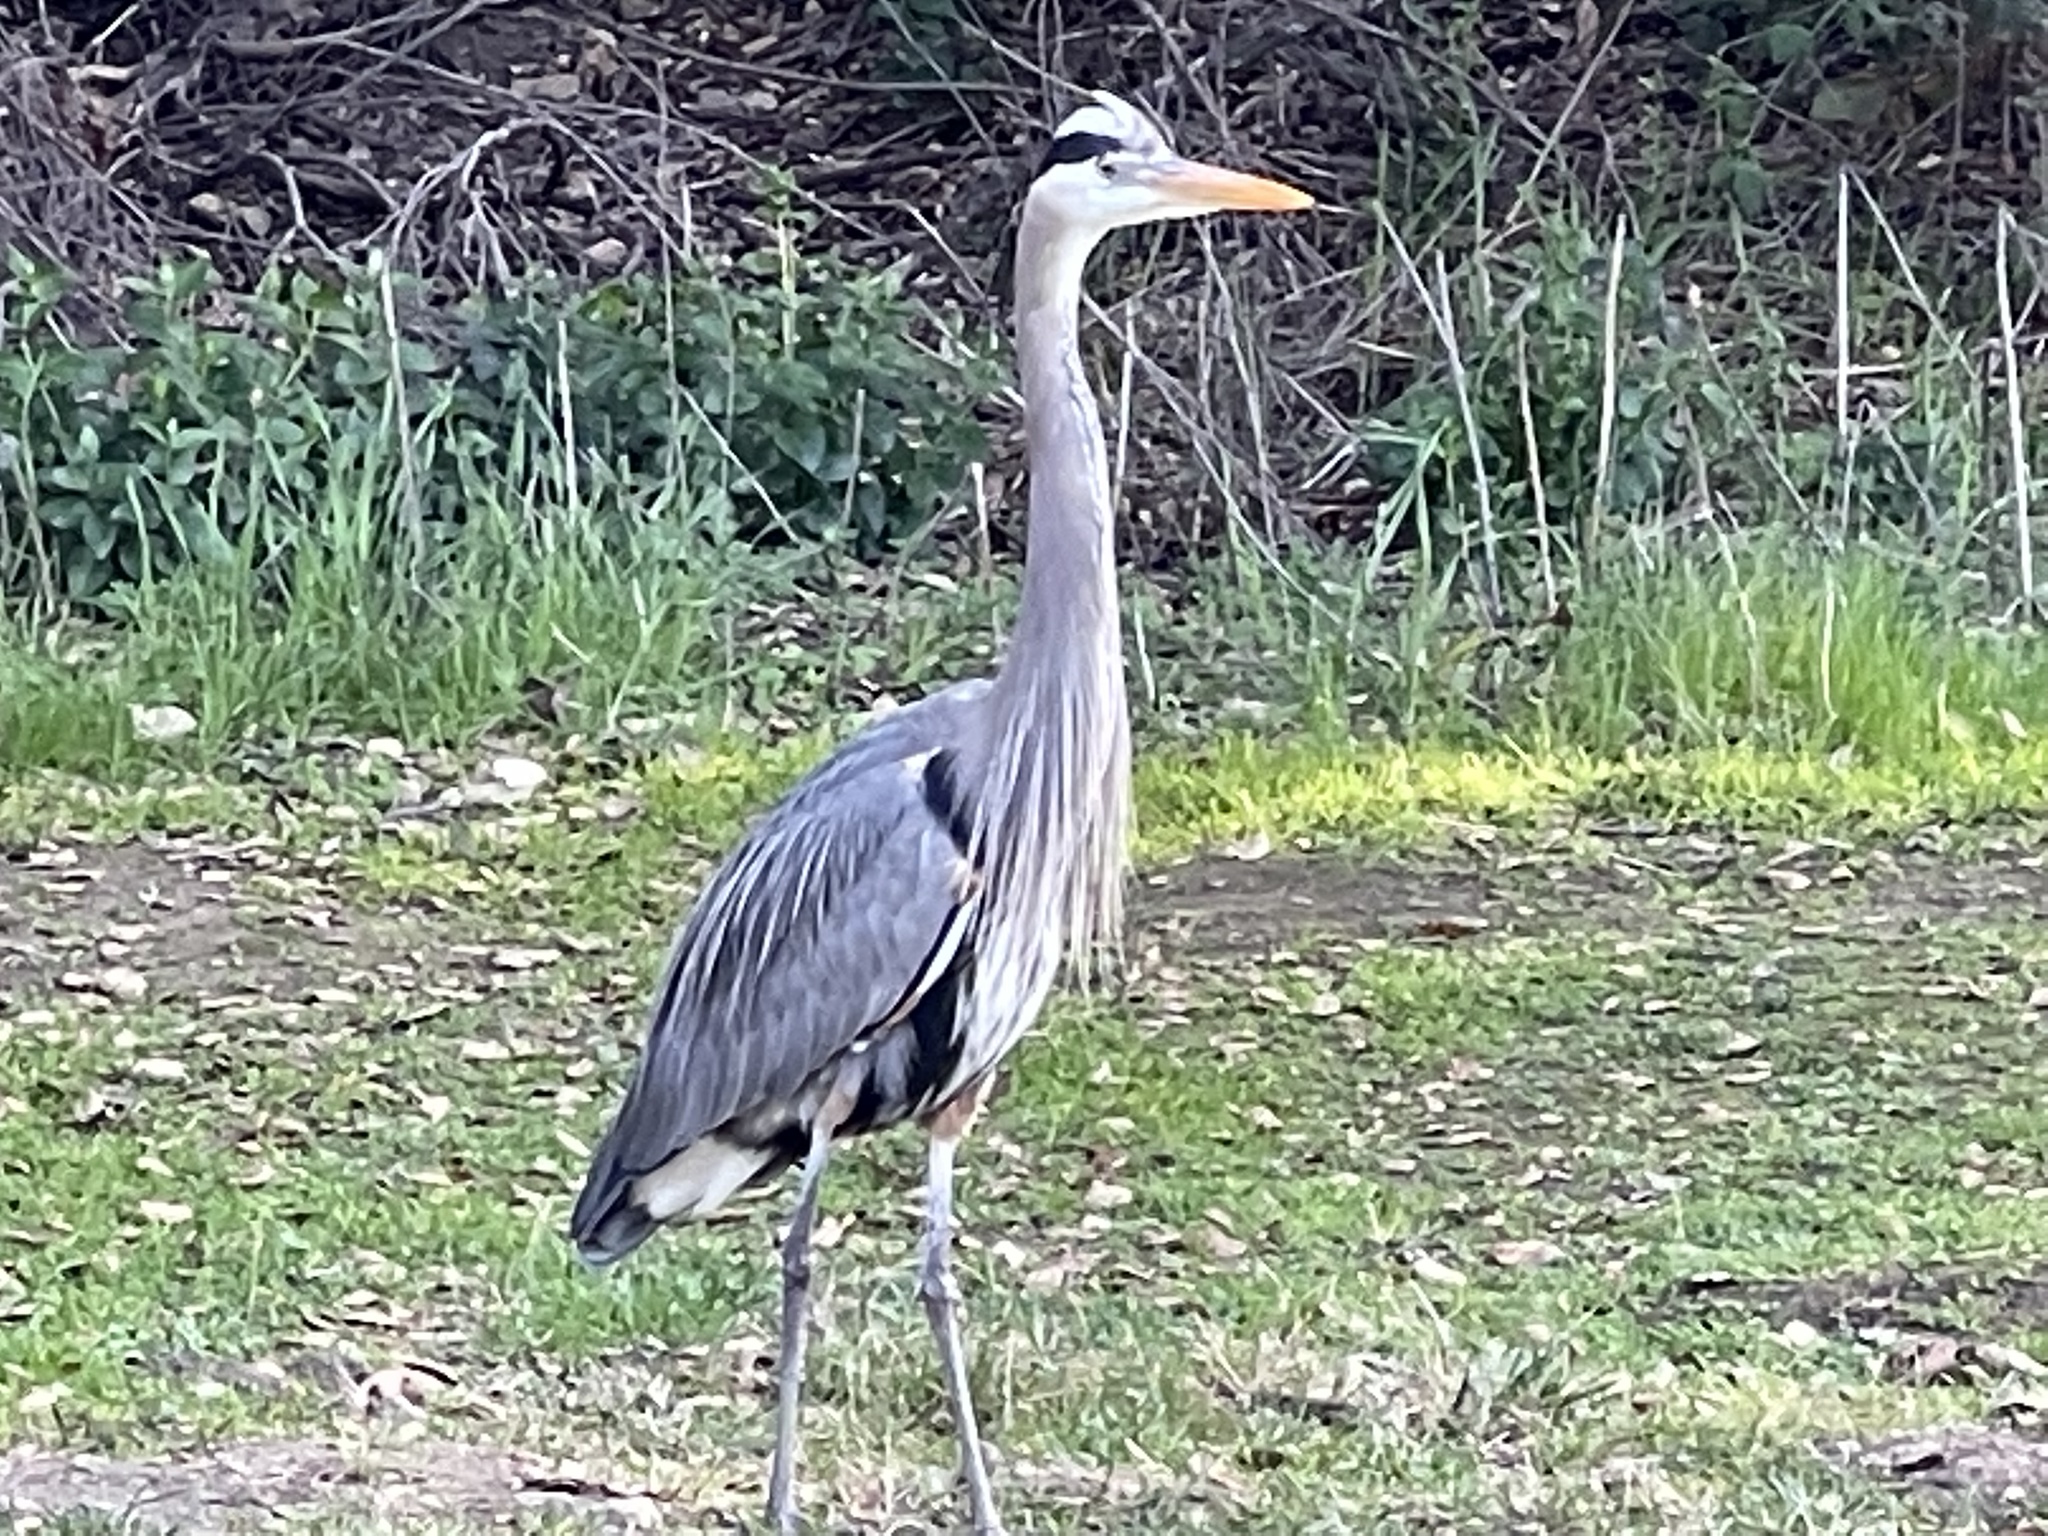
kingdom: Animalia
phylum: Chordata
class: Aves
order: Pelecaniformes
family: Ardeidae
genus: Ardea
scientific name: Ardea herodias
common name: Great blue heron
